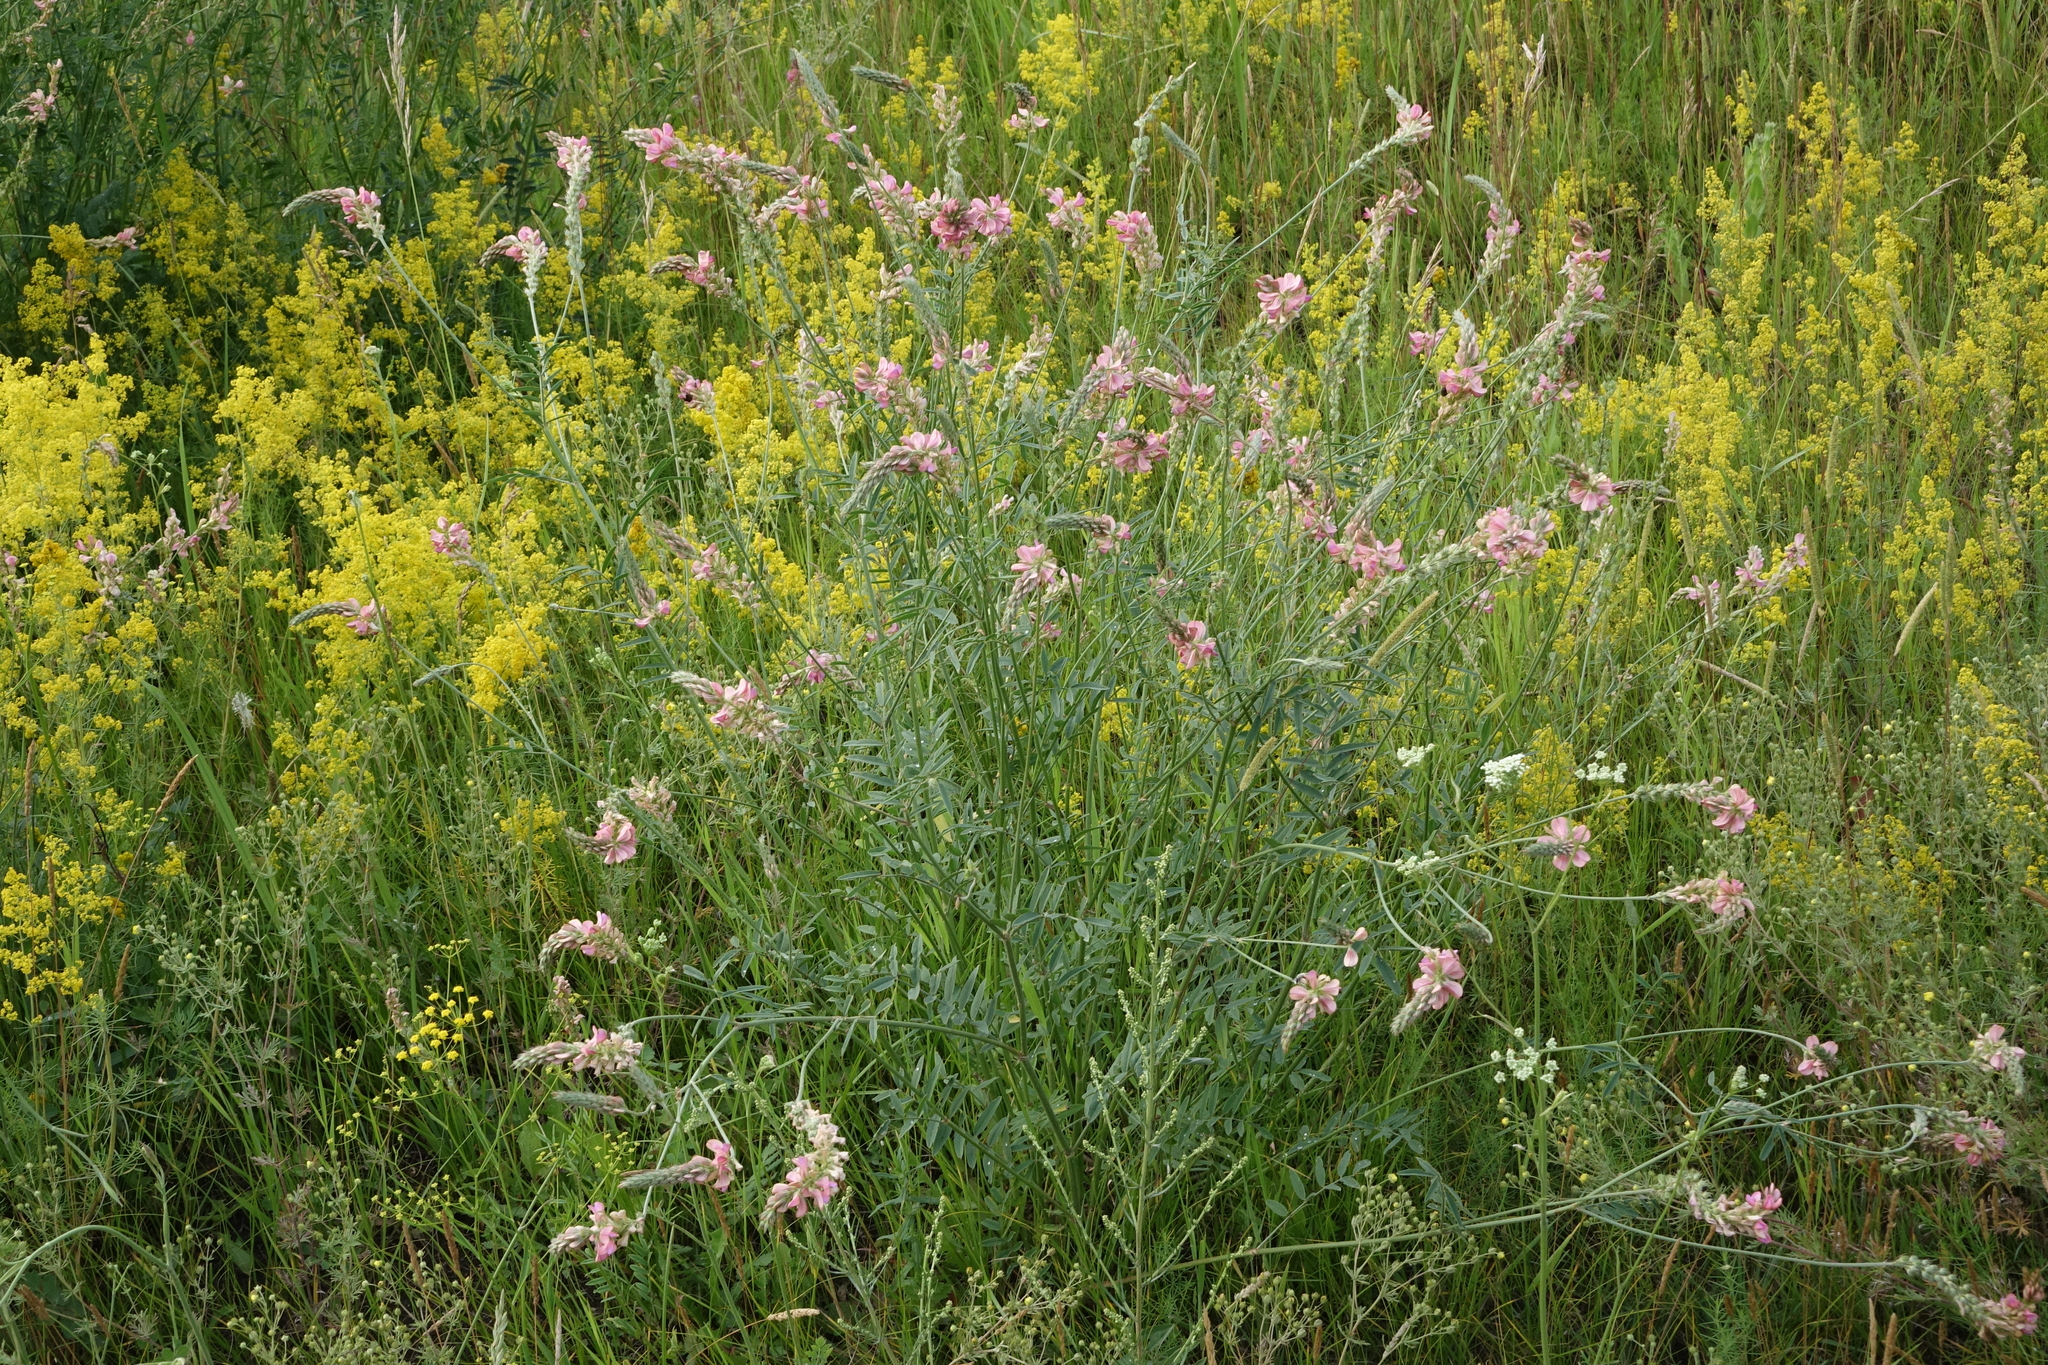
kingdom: Plantae
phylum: Tracheophyta
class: Magnoliopsida
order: Fabales
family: Fabaceae
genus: Onobrychis
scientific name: Onobrychis arenaria
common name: Sand esparcet
